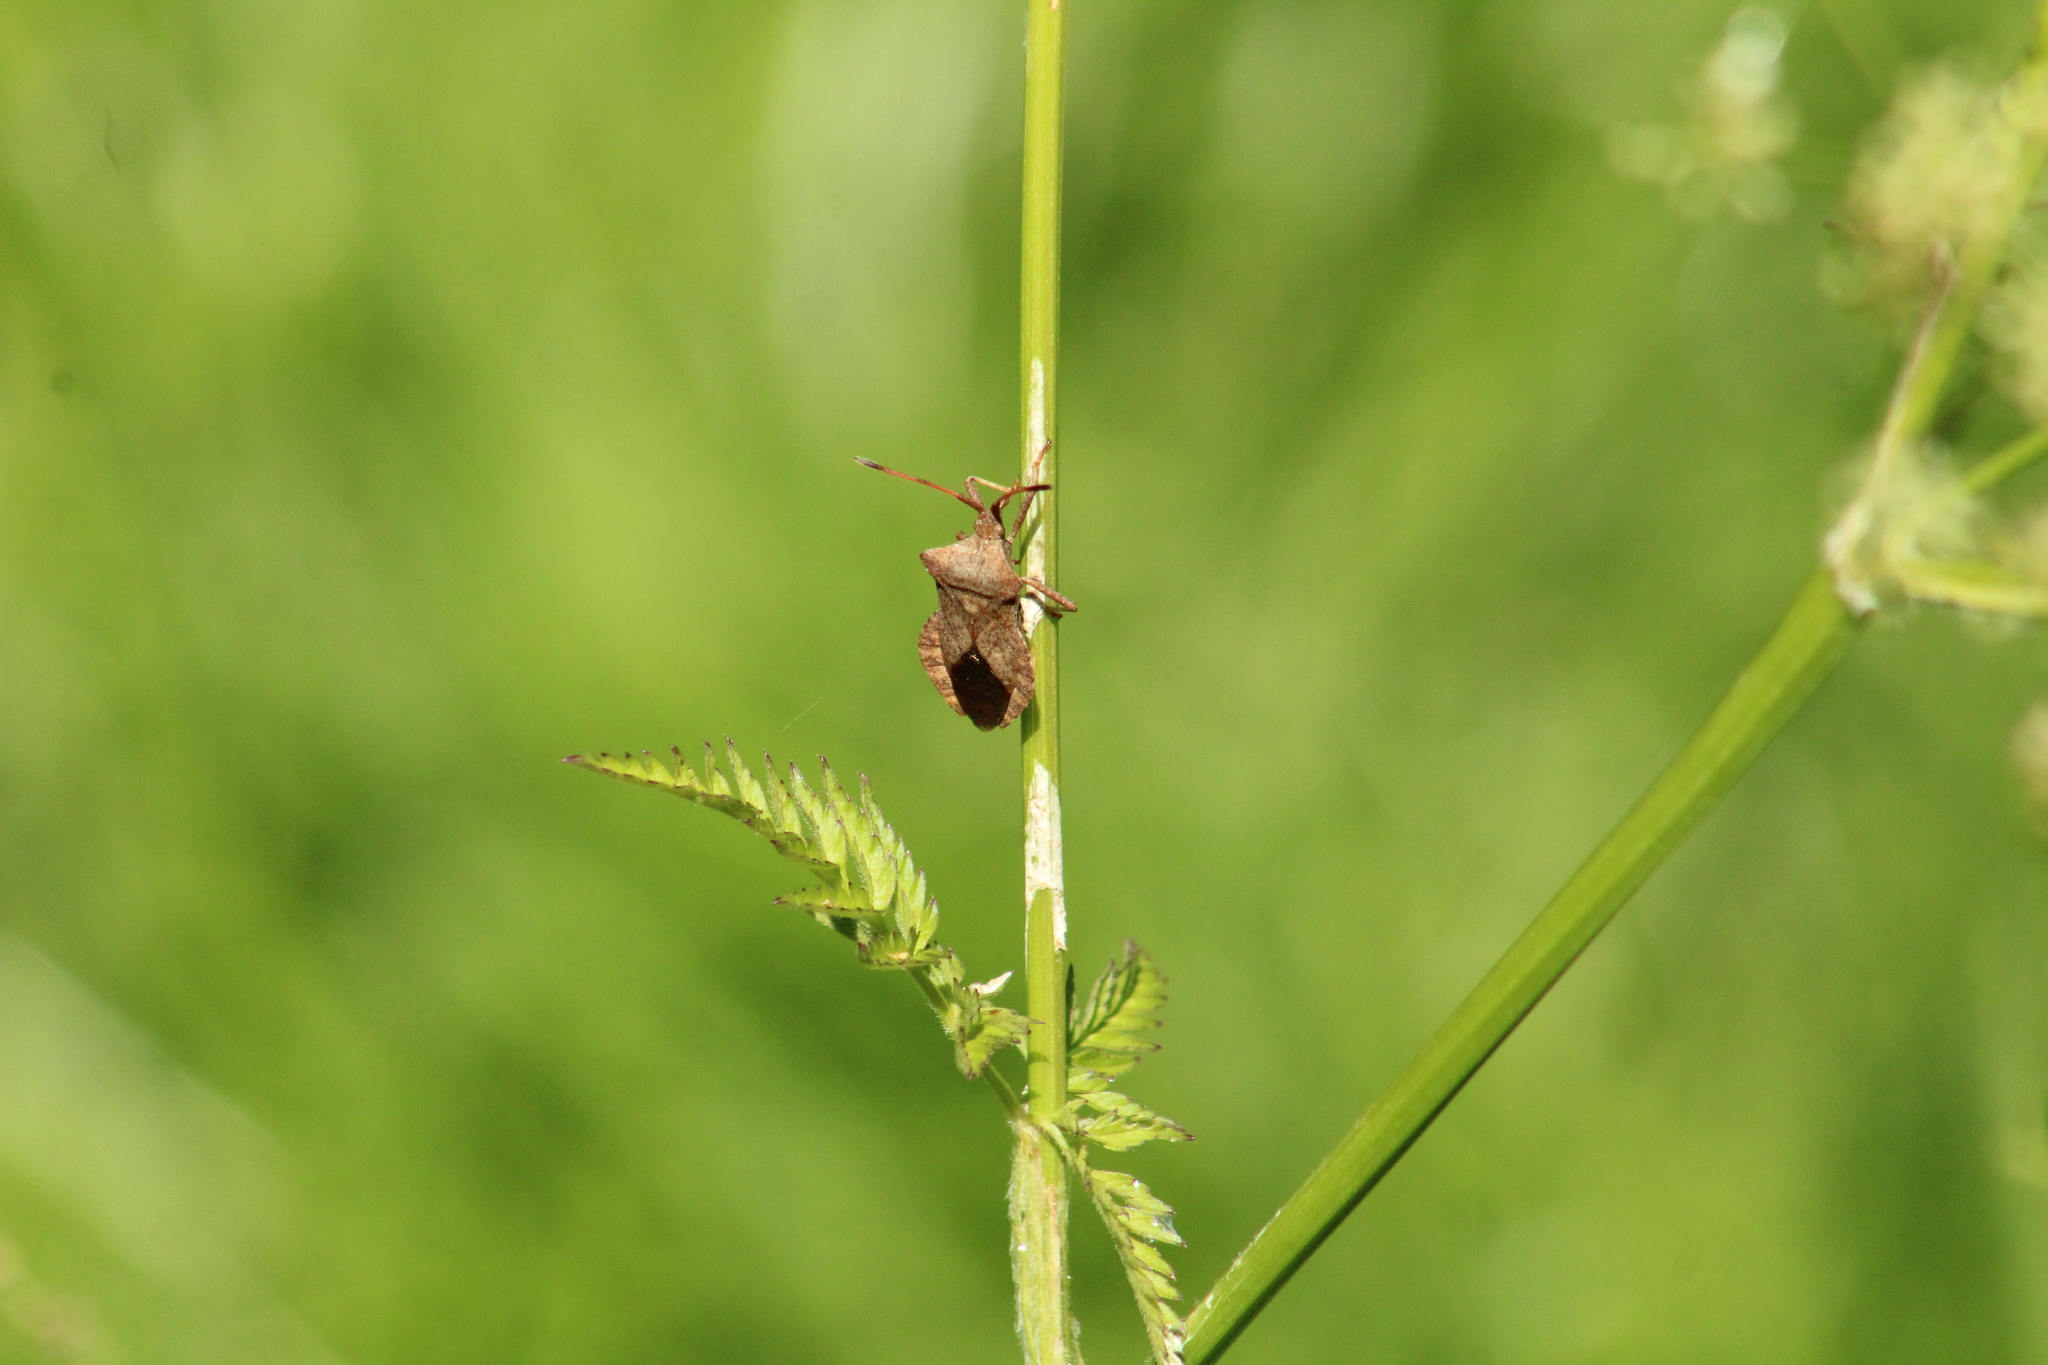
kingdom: Animalia
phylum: Arthropoda
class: Insecta
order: Hemiptera
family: Coreidae
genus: Coreus
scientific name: Coreus marginatus
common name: Dock bug
